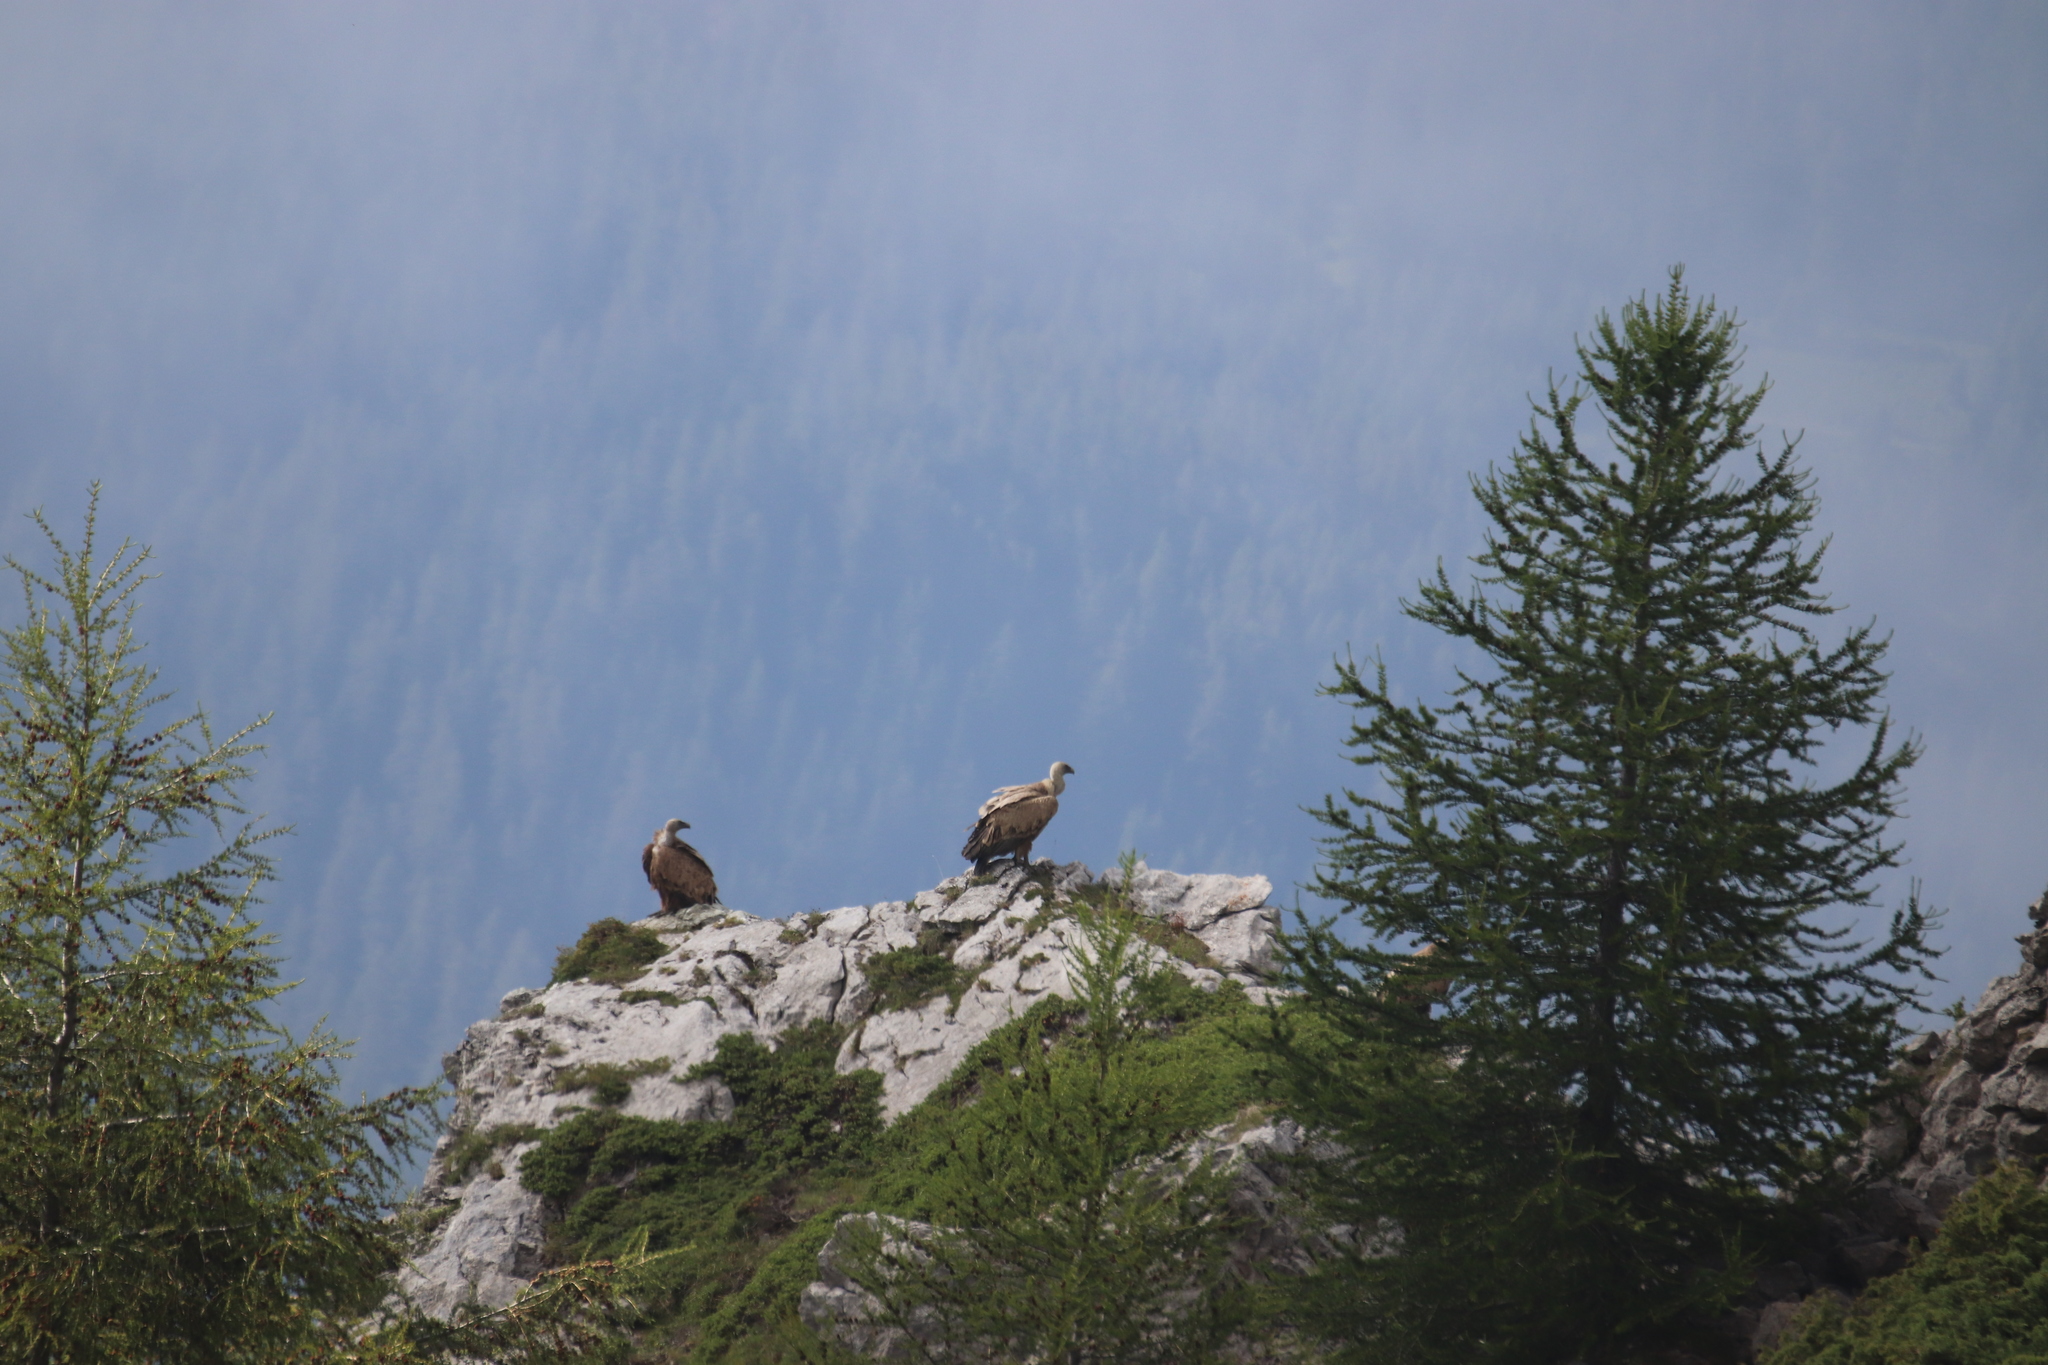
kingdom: Animalia
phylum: Chordata
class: Aves
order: Accipitriformes
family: Accipitridae
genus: Gyps
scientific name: Gyps fulvus
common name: Griffon vulture
